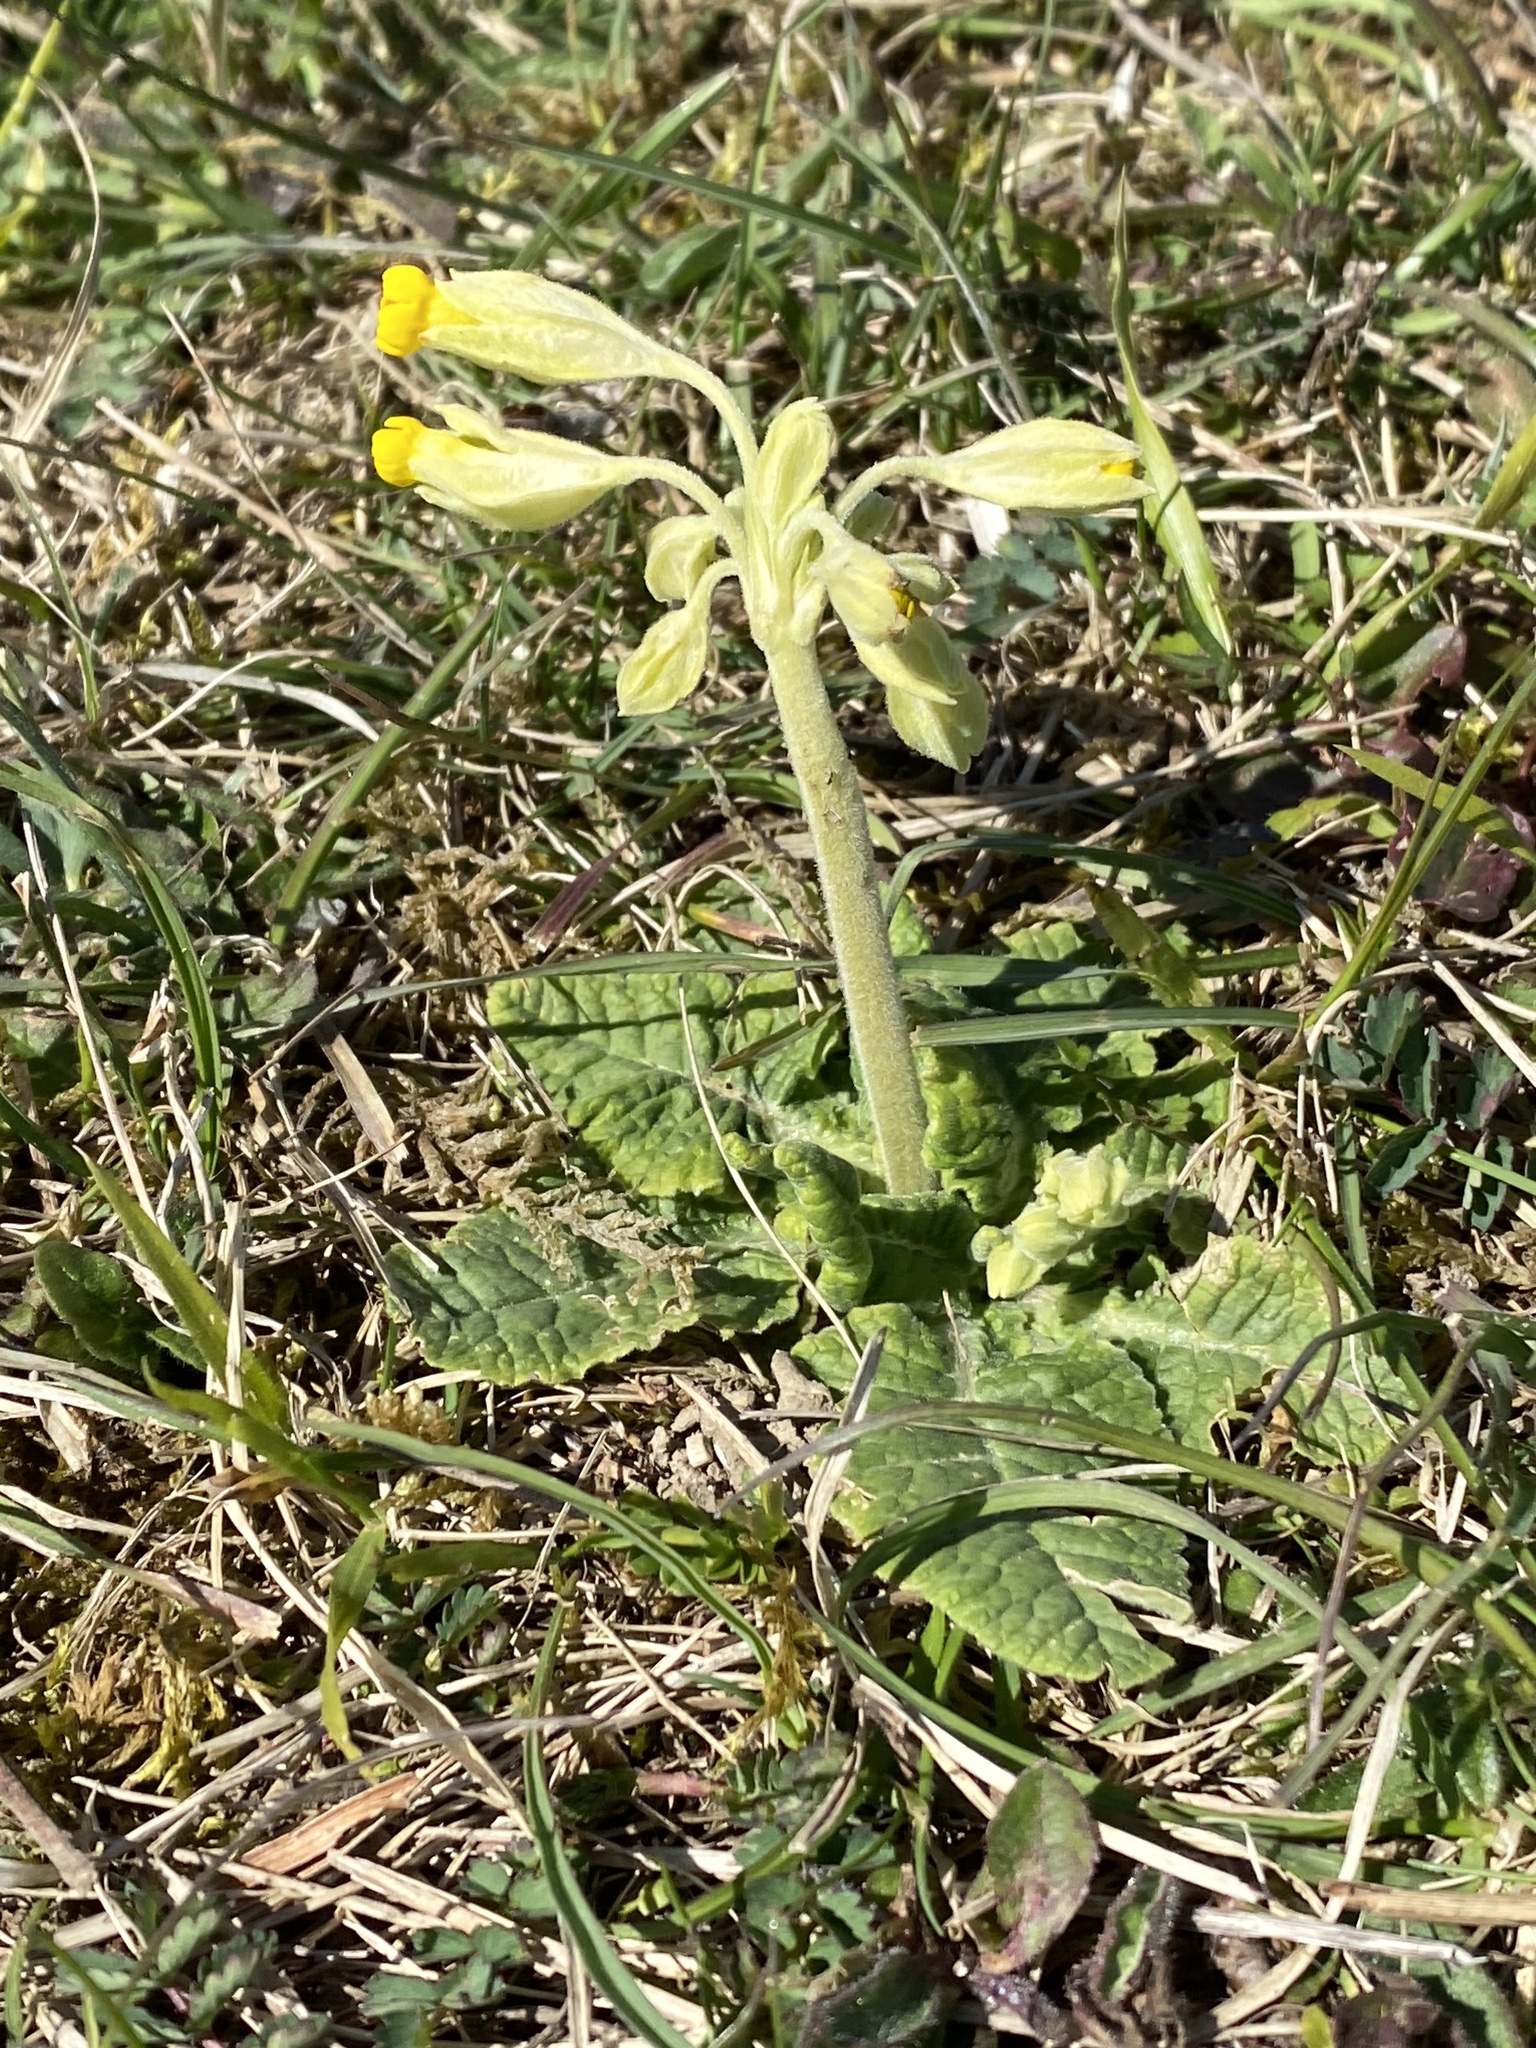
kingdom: Plantae
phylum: Tracheophyta
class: Magnoliopsida
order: Ericales
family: Primulaceae
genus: Primula
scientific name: Primula veris
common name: Cowslip
